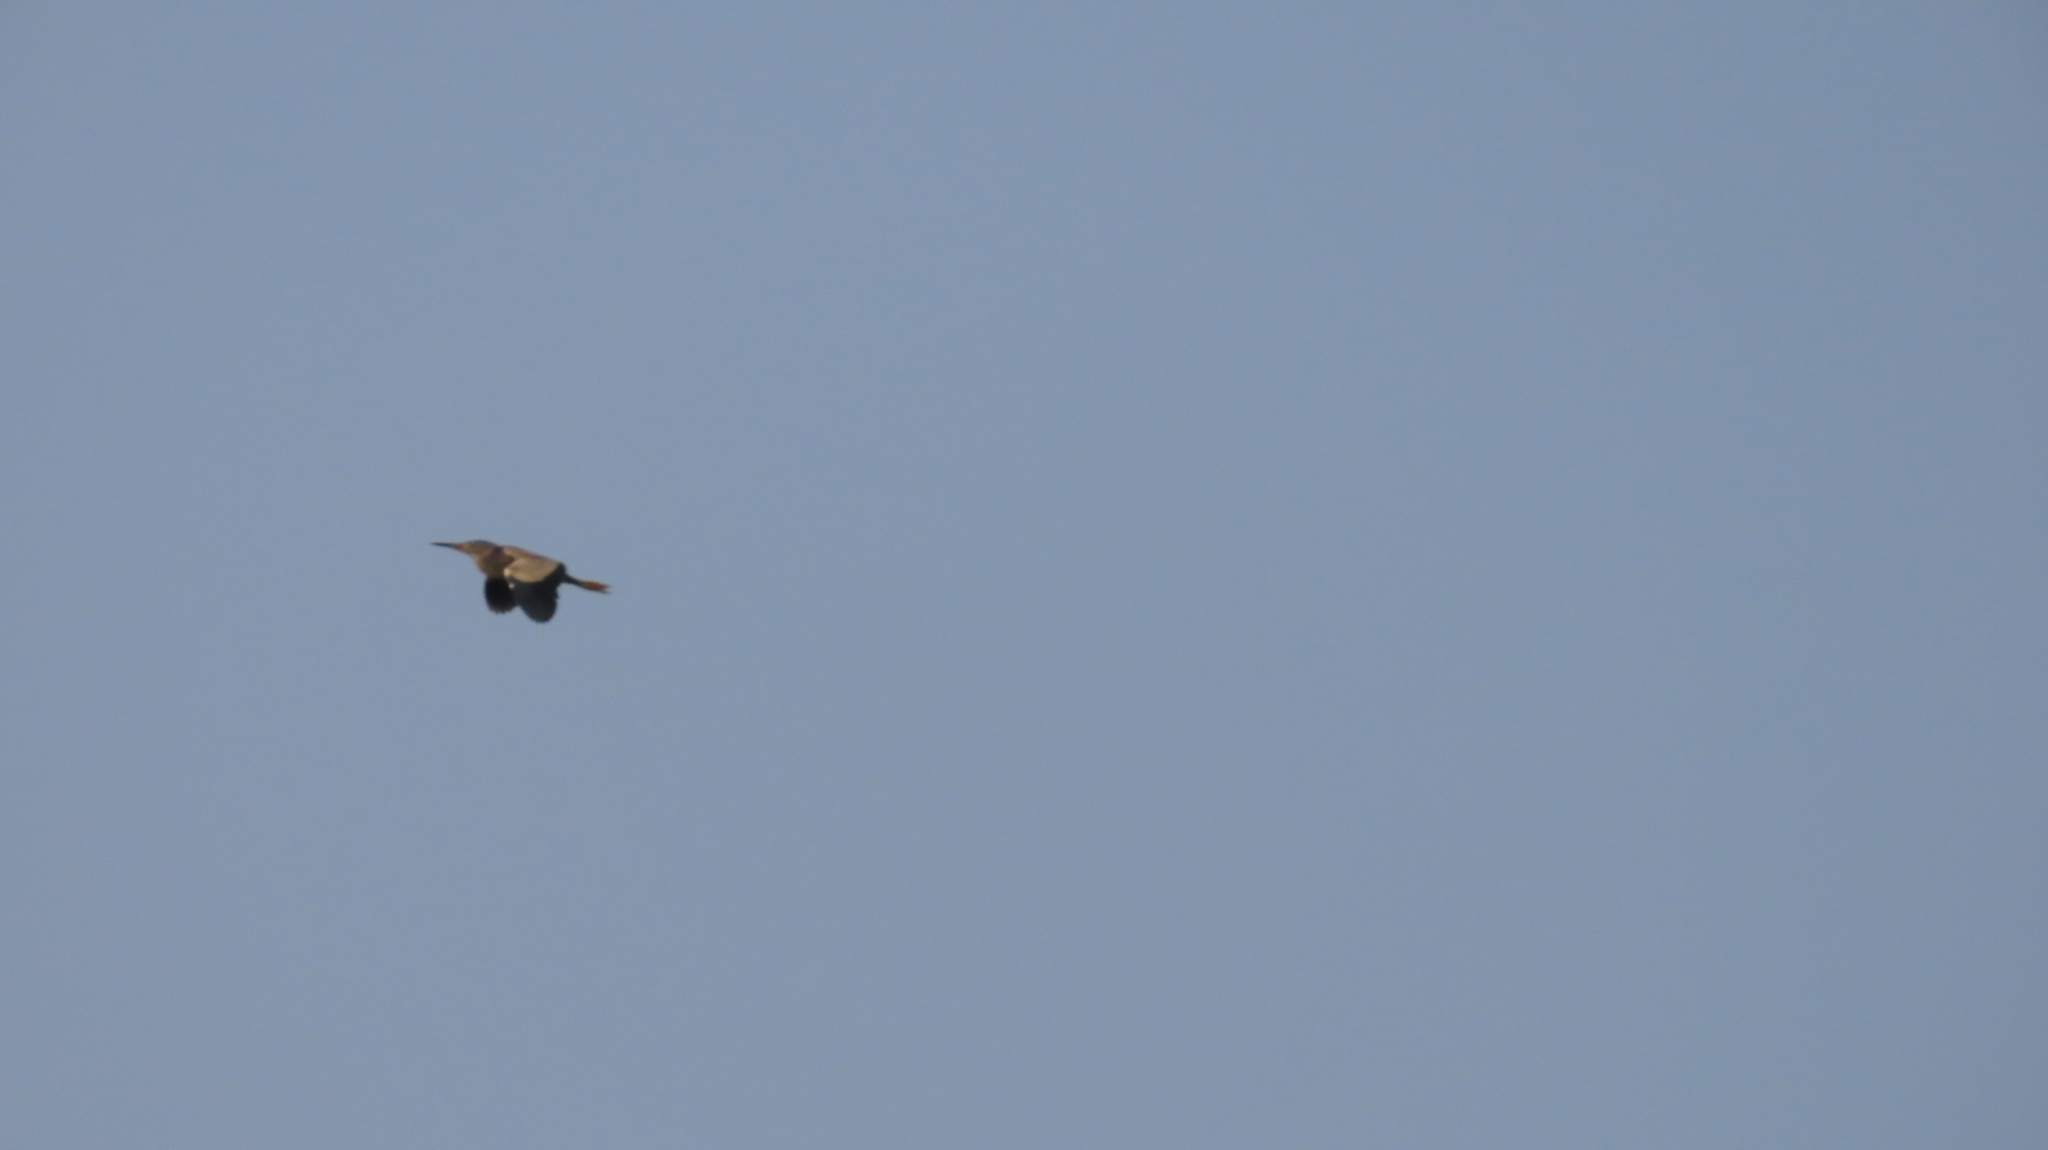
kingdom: Animalia
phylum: Chordata
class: Aves
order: Pelecaniformes
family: Ardeidae
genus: Ixobrychus
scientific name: Ixobrychus sinensis
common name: Yellow bittern
